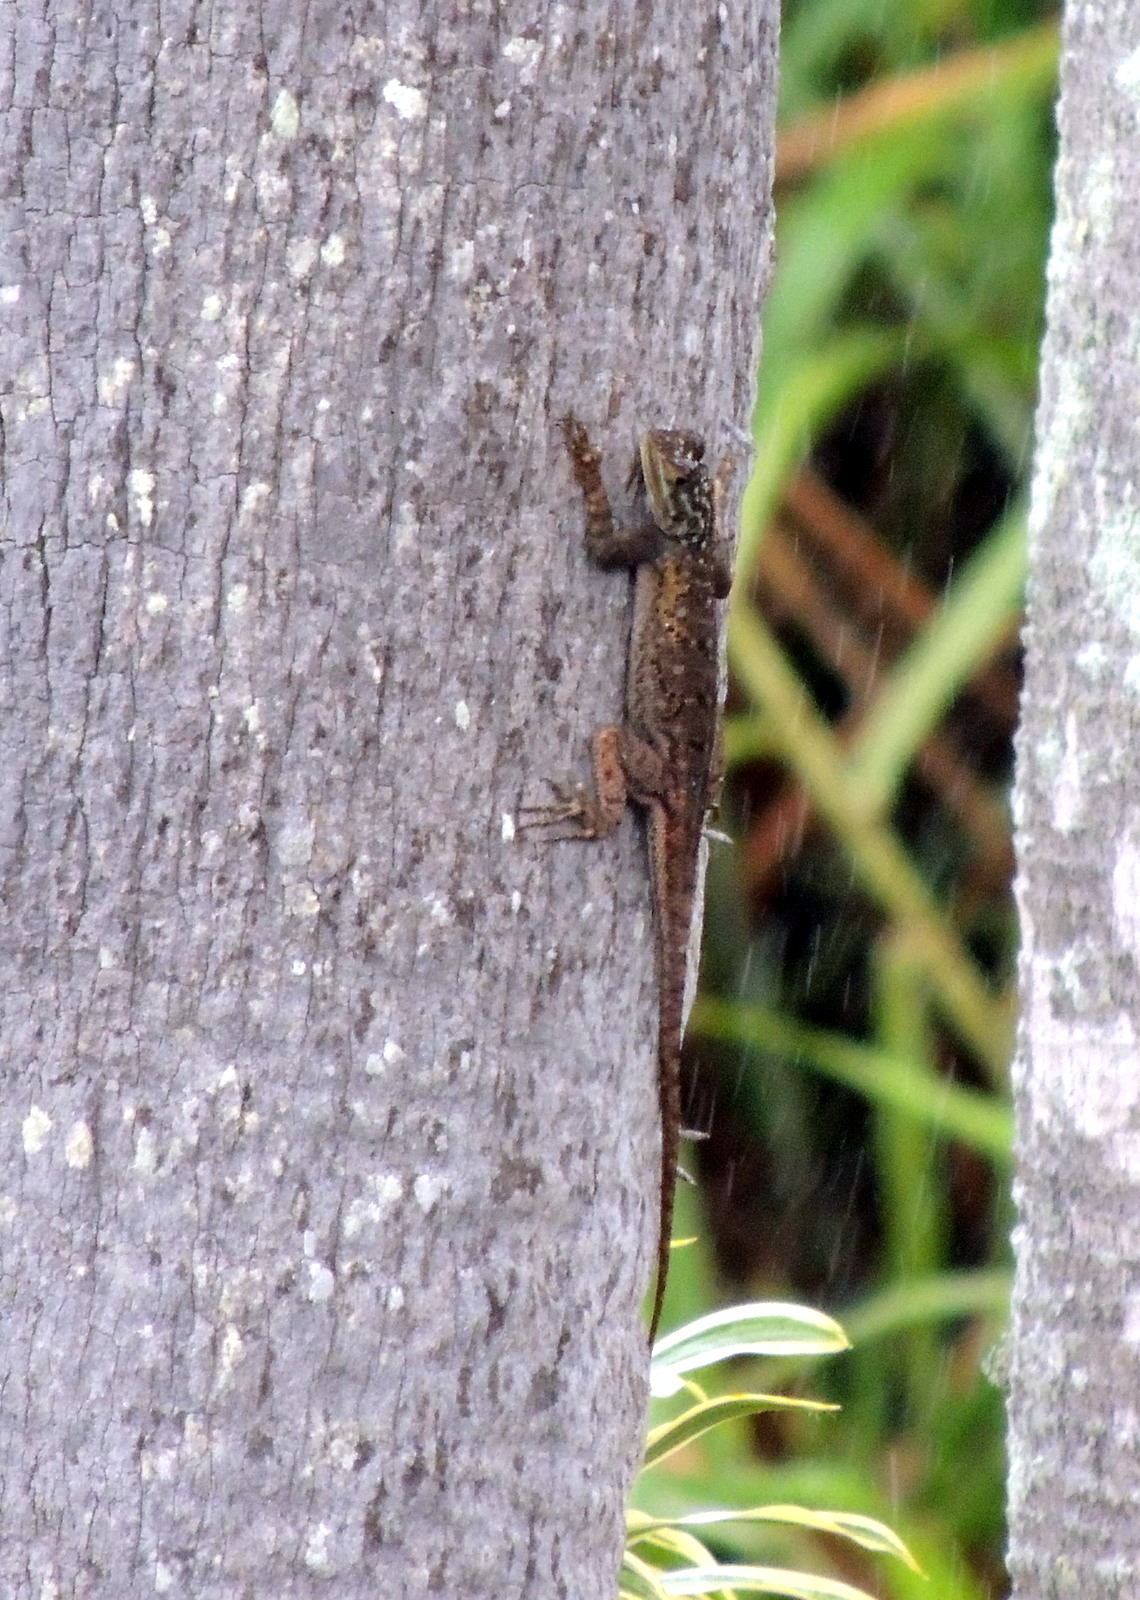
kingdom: Animalia
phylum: Chordata
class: Squamata
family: Agamidae
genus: Agama
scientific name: Agama picticauda
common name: Red-headed agama
